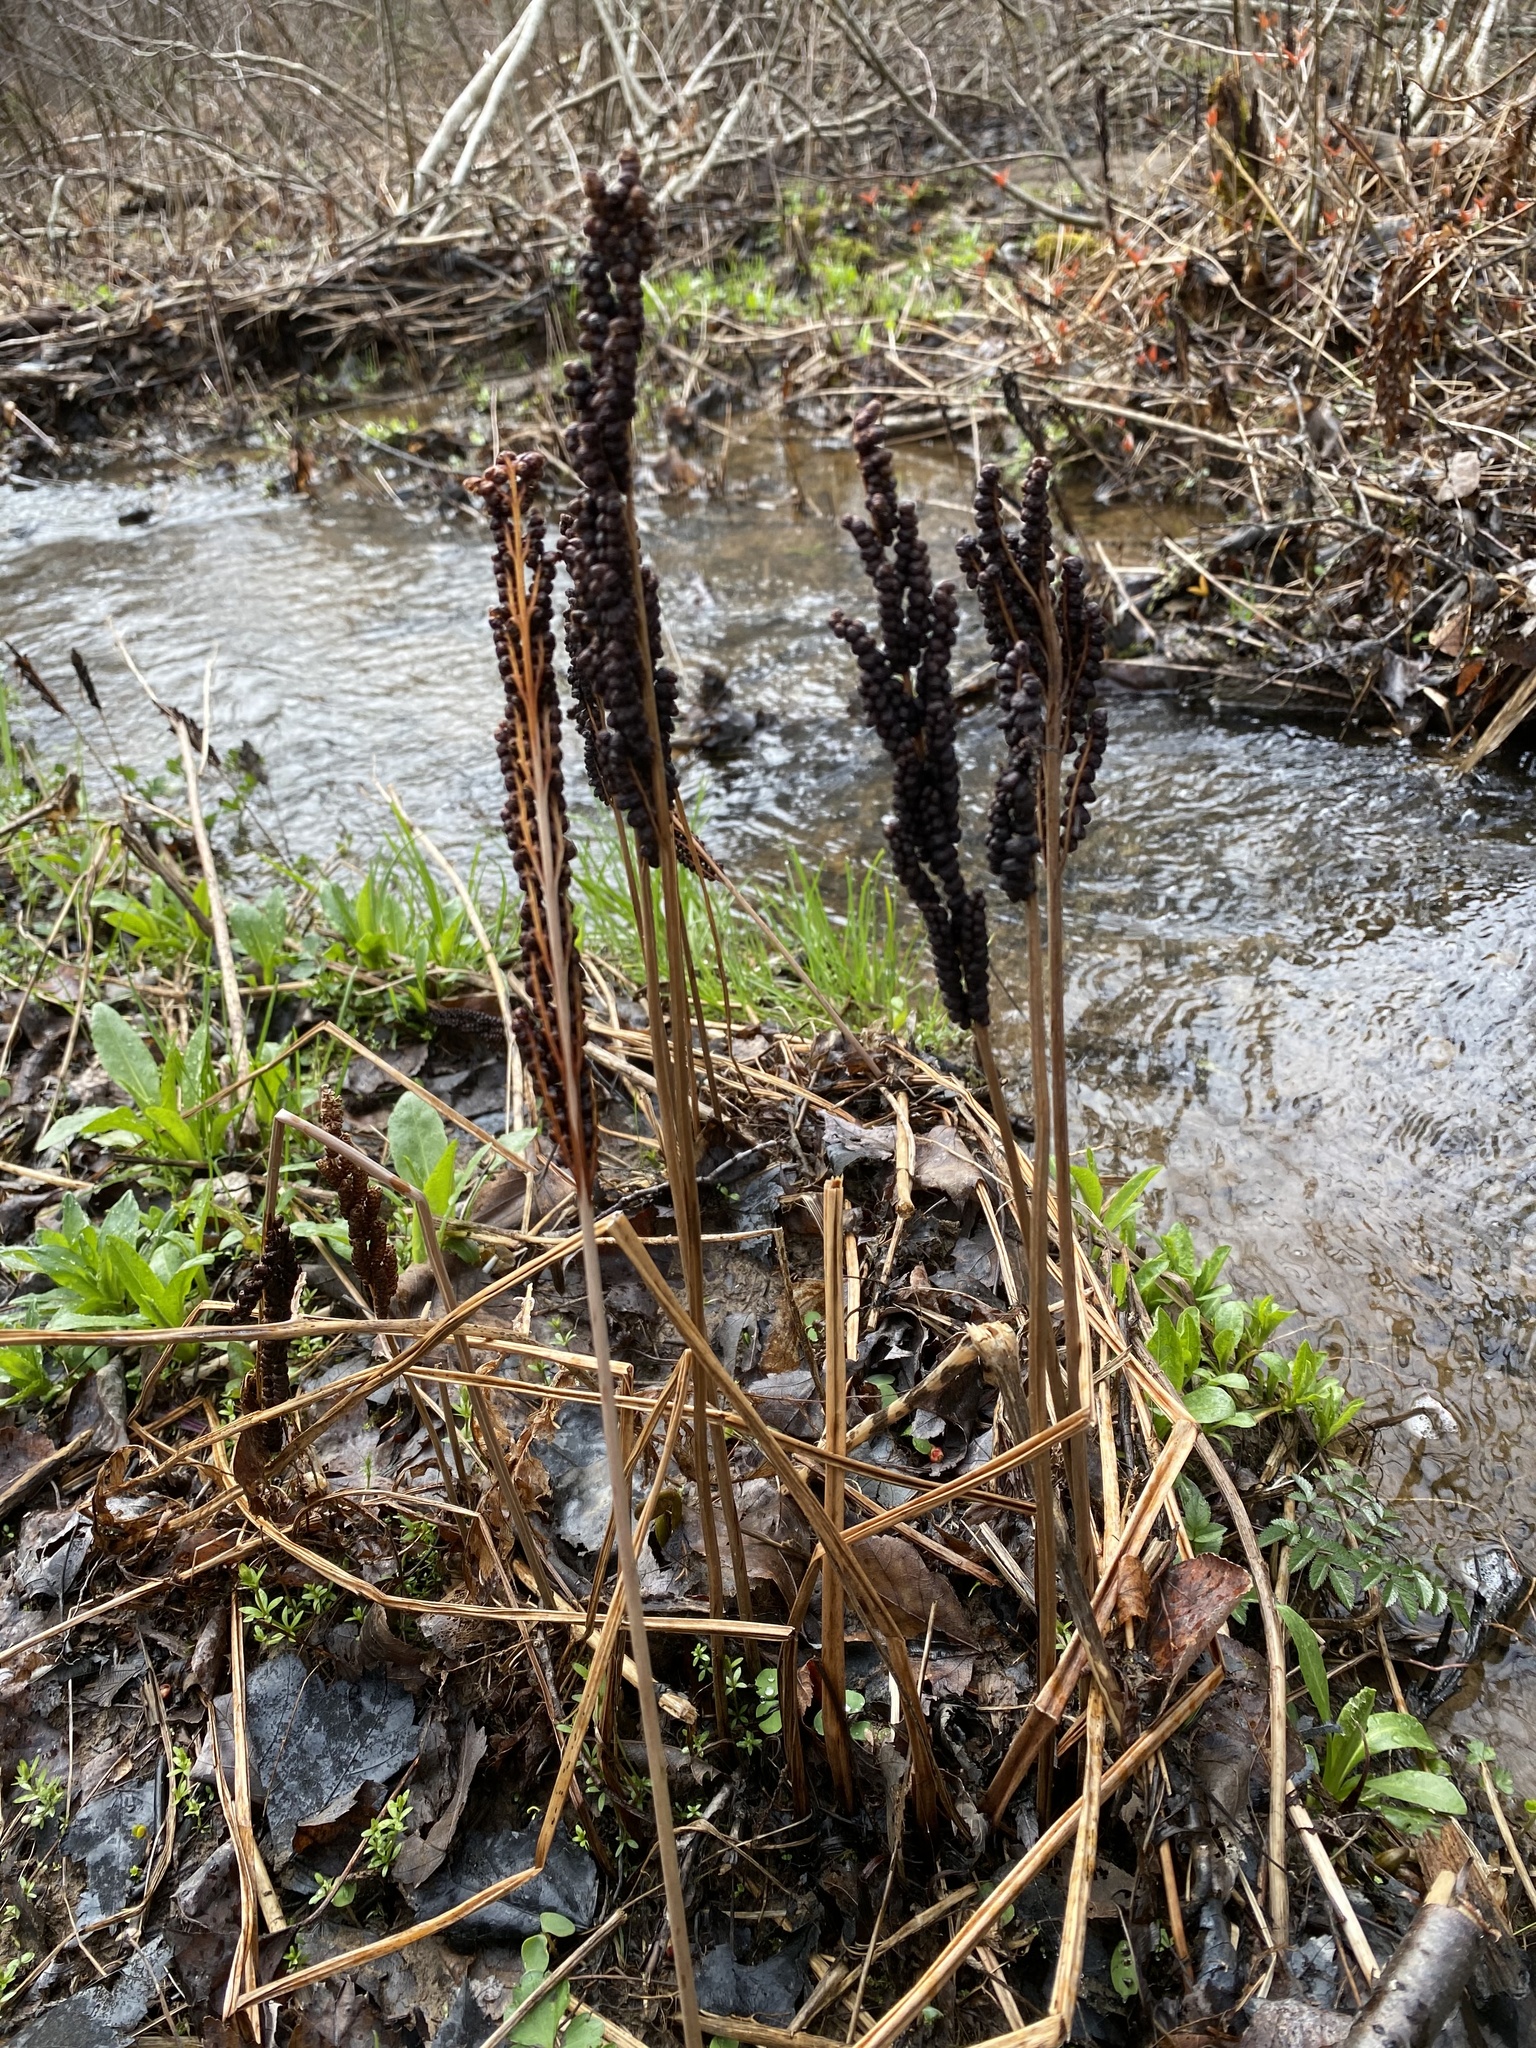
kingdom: Plantae
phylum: Tracheophyta
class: Polypodiopsida
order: Polypodiales
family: Onocleaceae
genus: Onoclea
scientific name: Onoclea sensibilis
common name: Sensitive fern
